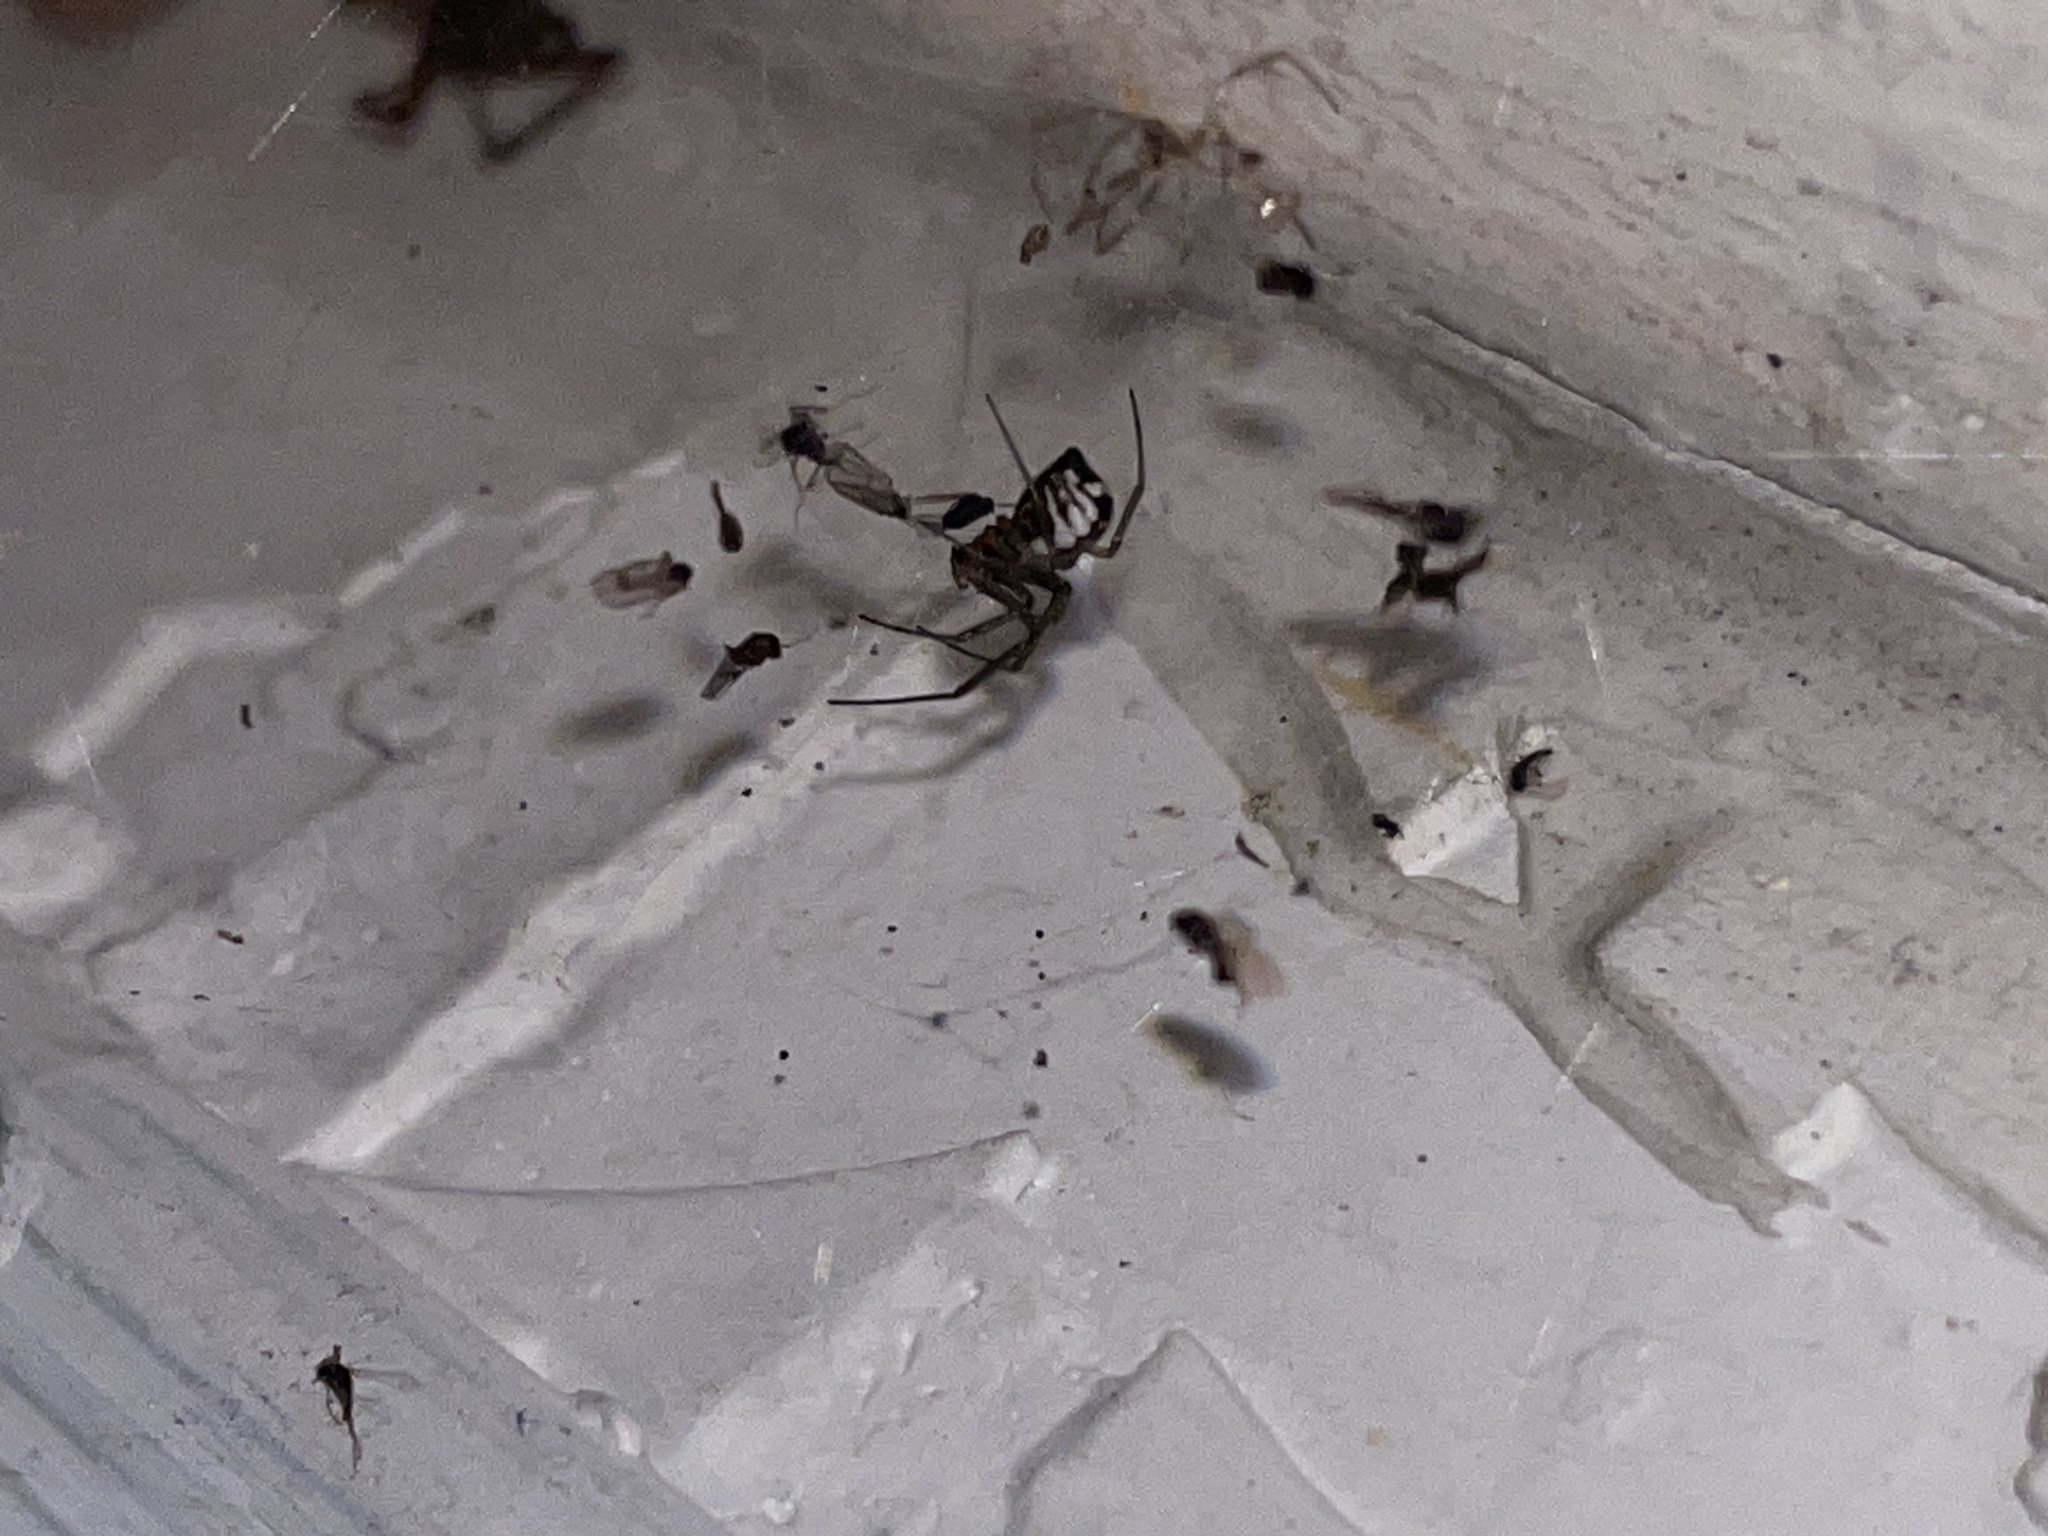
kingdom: Animalia
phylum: Arthropoda
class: Arachnida
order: Araneae
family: Linyphiidae
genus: Frontinella
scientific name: Frontinella pyramitela
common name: Bowl-and-doily spider
